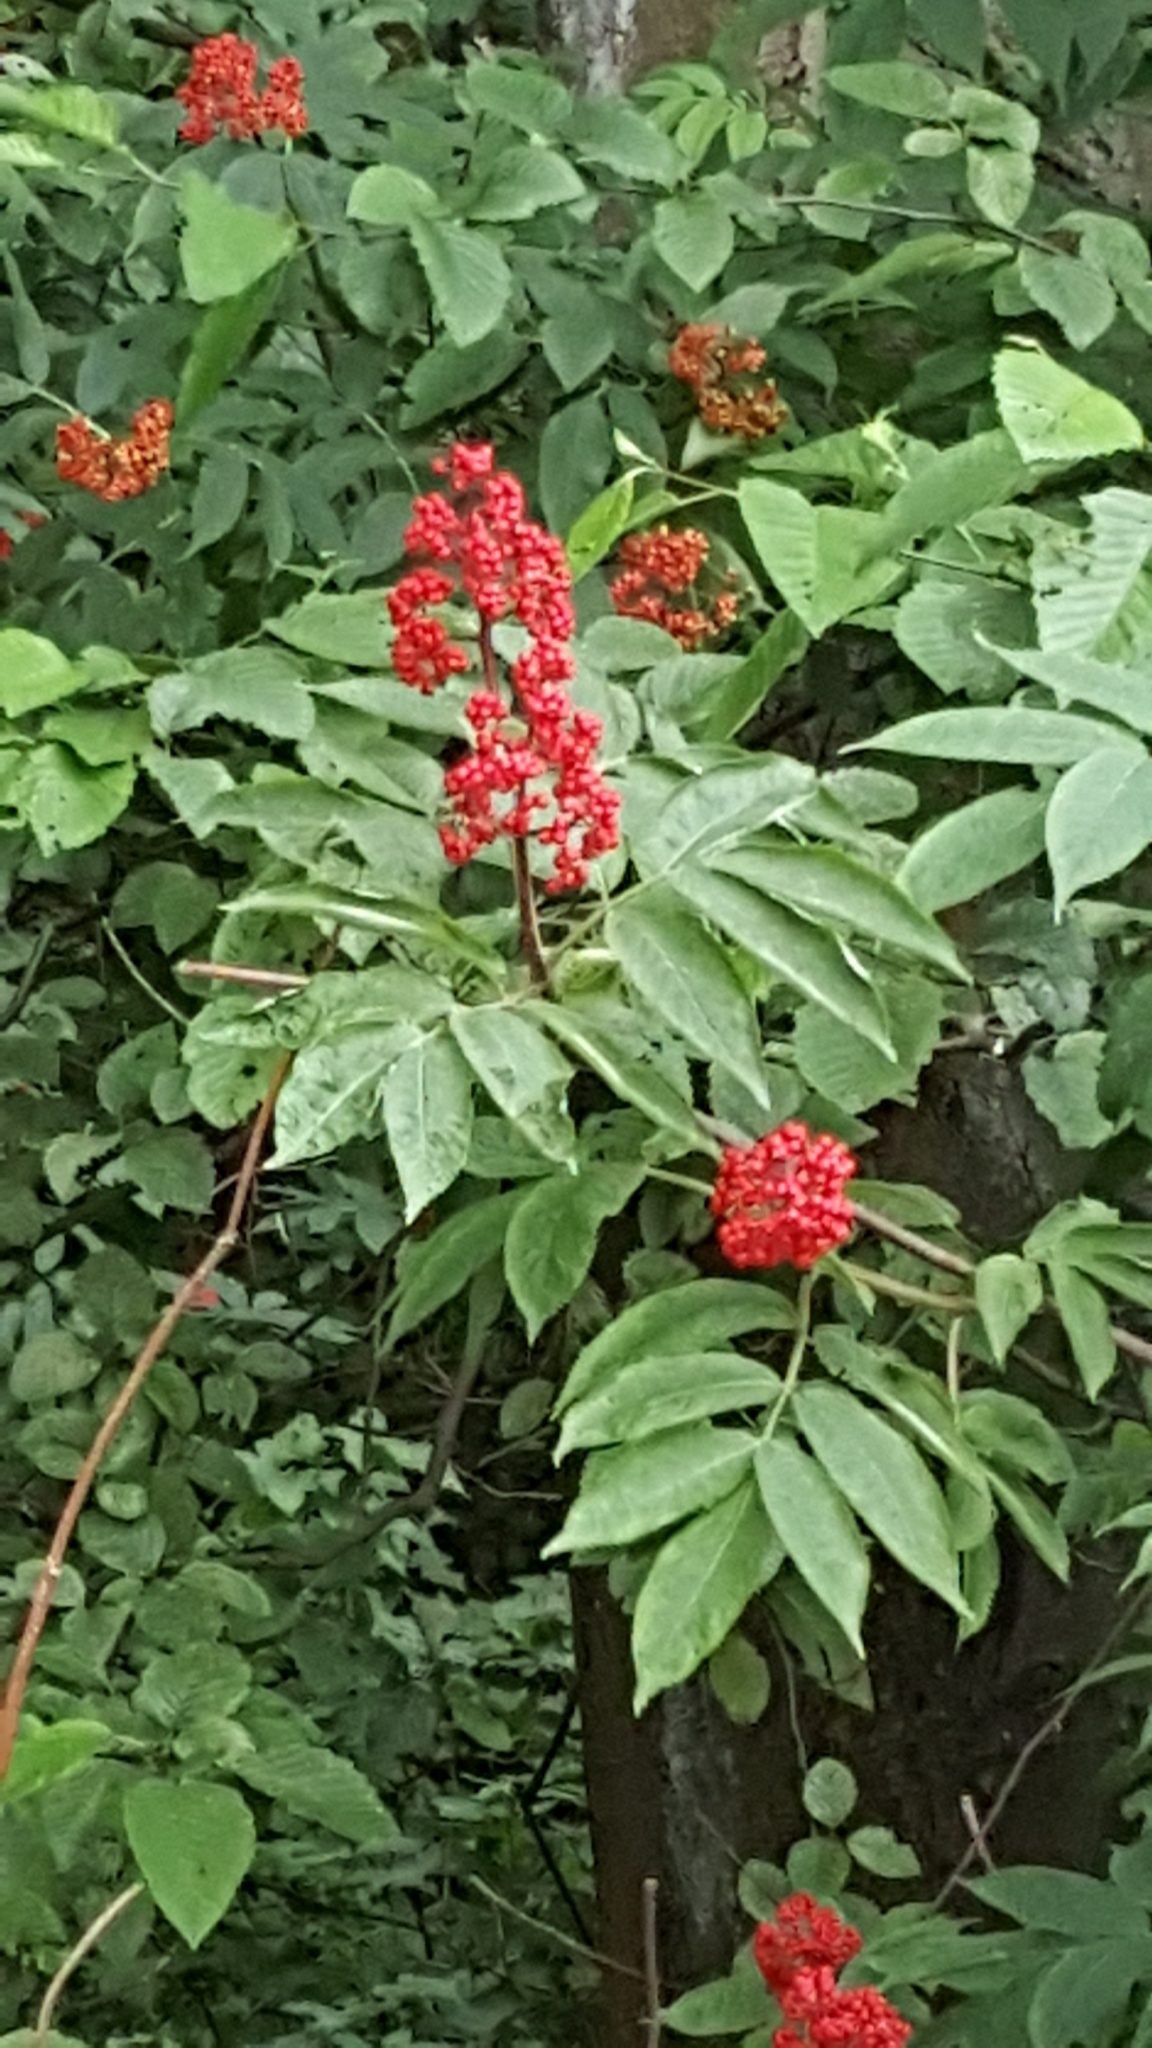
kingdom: Plantae
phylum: Tracheophyta
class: Magnoliopsida
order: Dipsacales
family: Viburnaceae
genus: Sambucus
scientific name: Sambucus racemosa
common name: Red-berried elder
